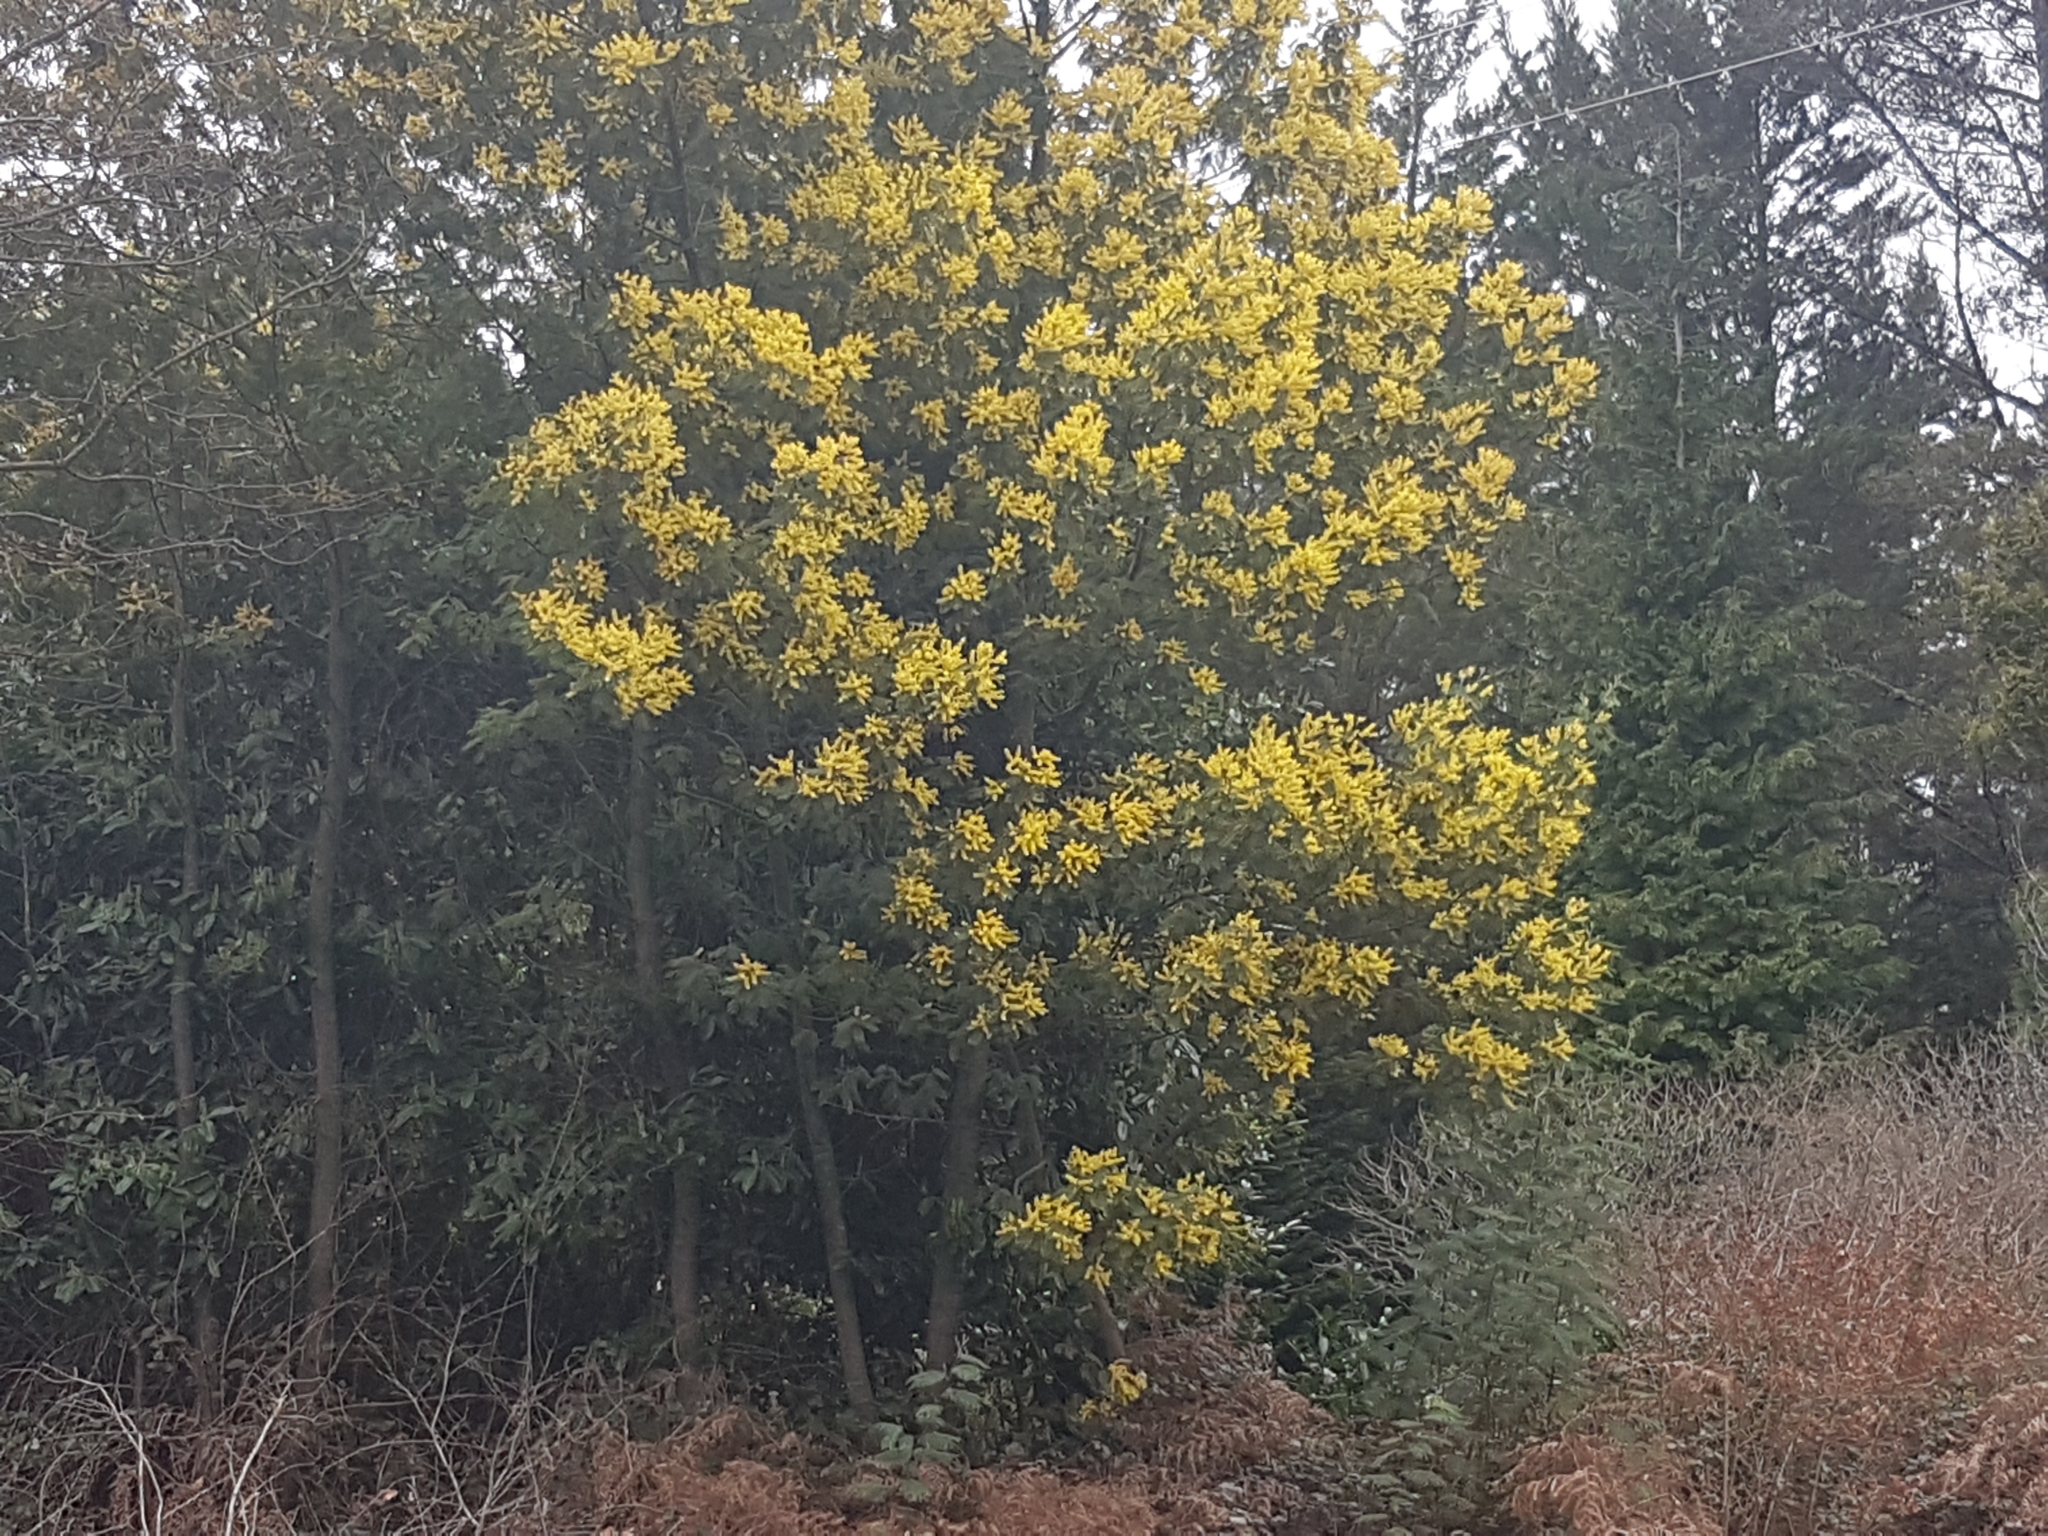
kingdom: Plantae
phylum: Tracheophyta
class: Magnoliopsida
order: Fabales
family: Fabaceae
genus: Acacia
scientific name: Acacia dealbata
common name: Silver wattle
